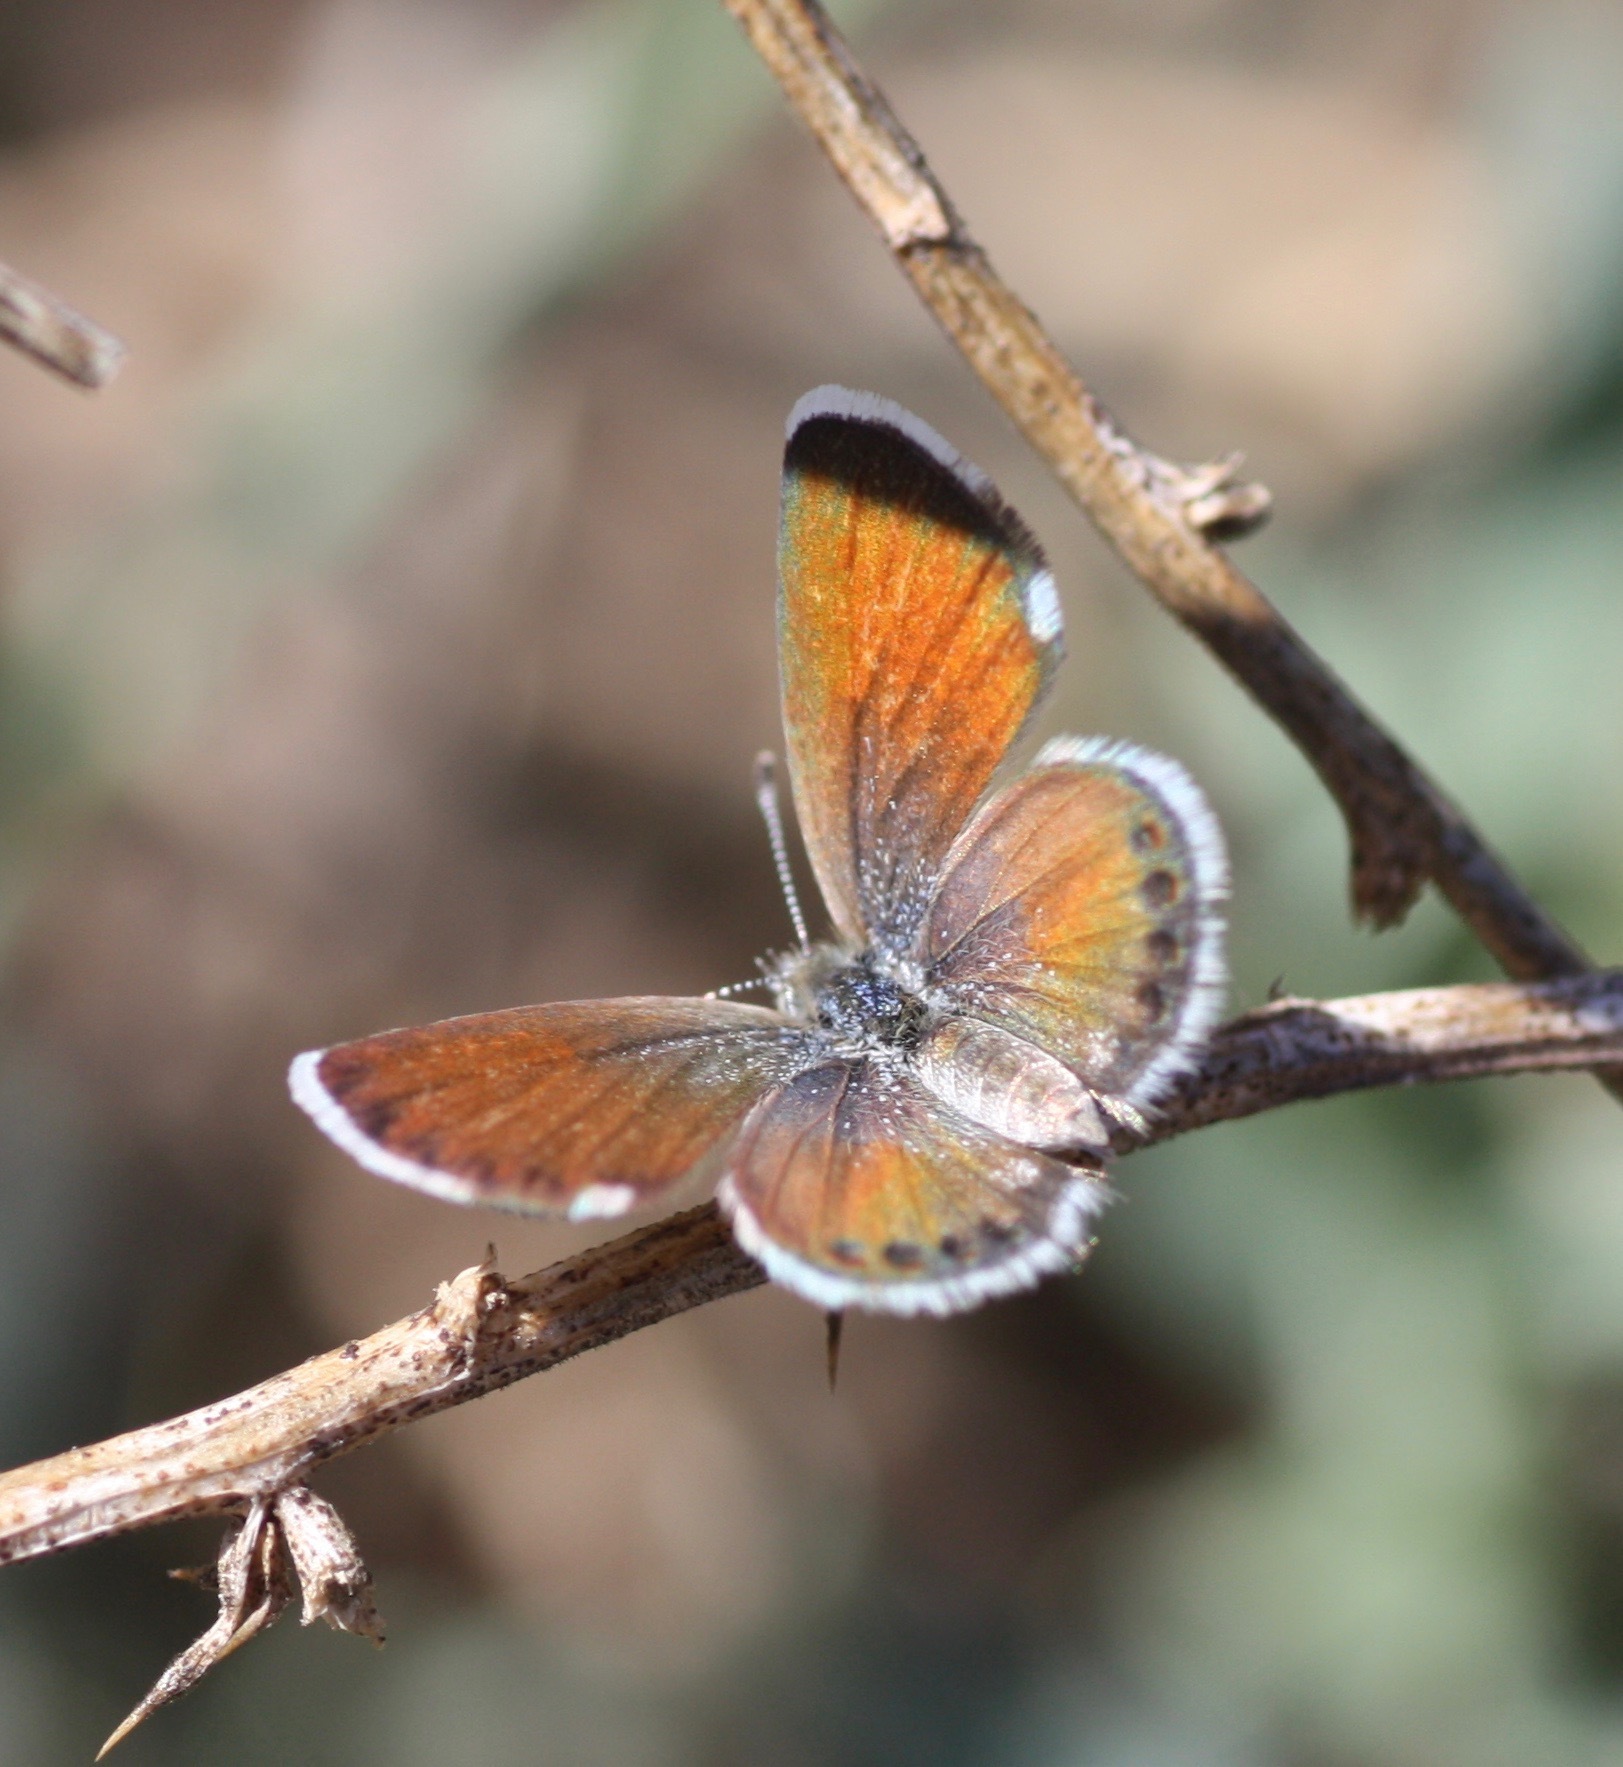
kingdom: Animalia
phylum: Arthropoda
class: Insecta
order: Lepidoptera
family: Lycaenidae
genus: Brephidium
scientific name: Brephidium exilis
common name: Pygmy blue
